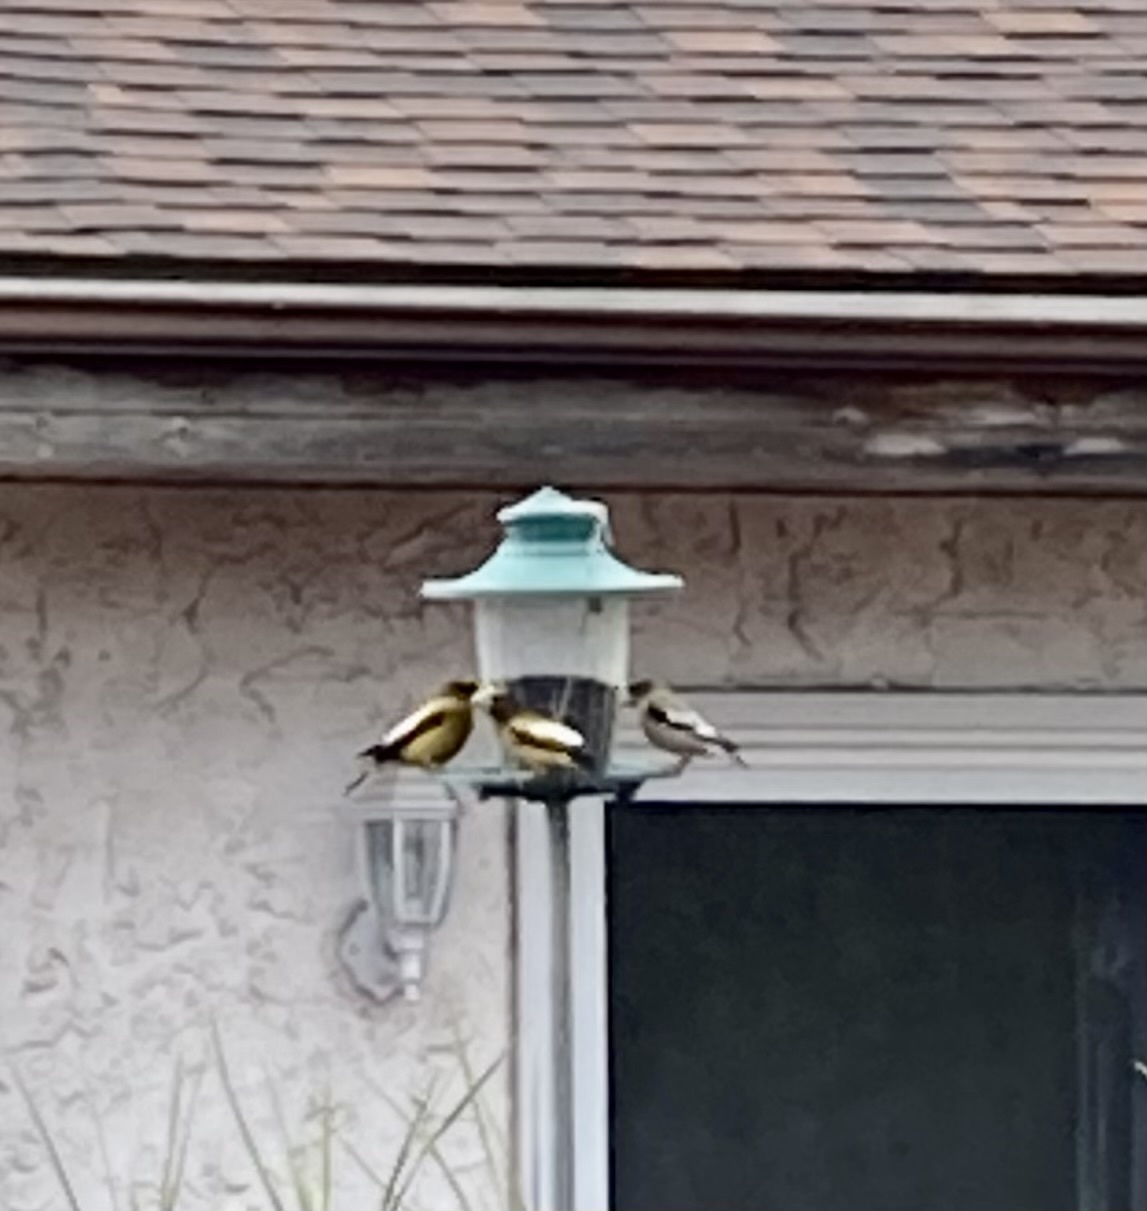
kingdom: Animalia
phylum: Chordata
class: Aves
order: Passeriformes
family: Fringillidae
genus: Hesperiphona
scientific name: Hesperiphona vespertina
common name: Evening grosbeak
